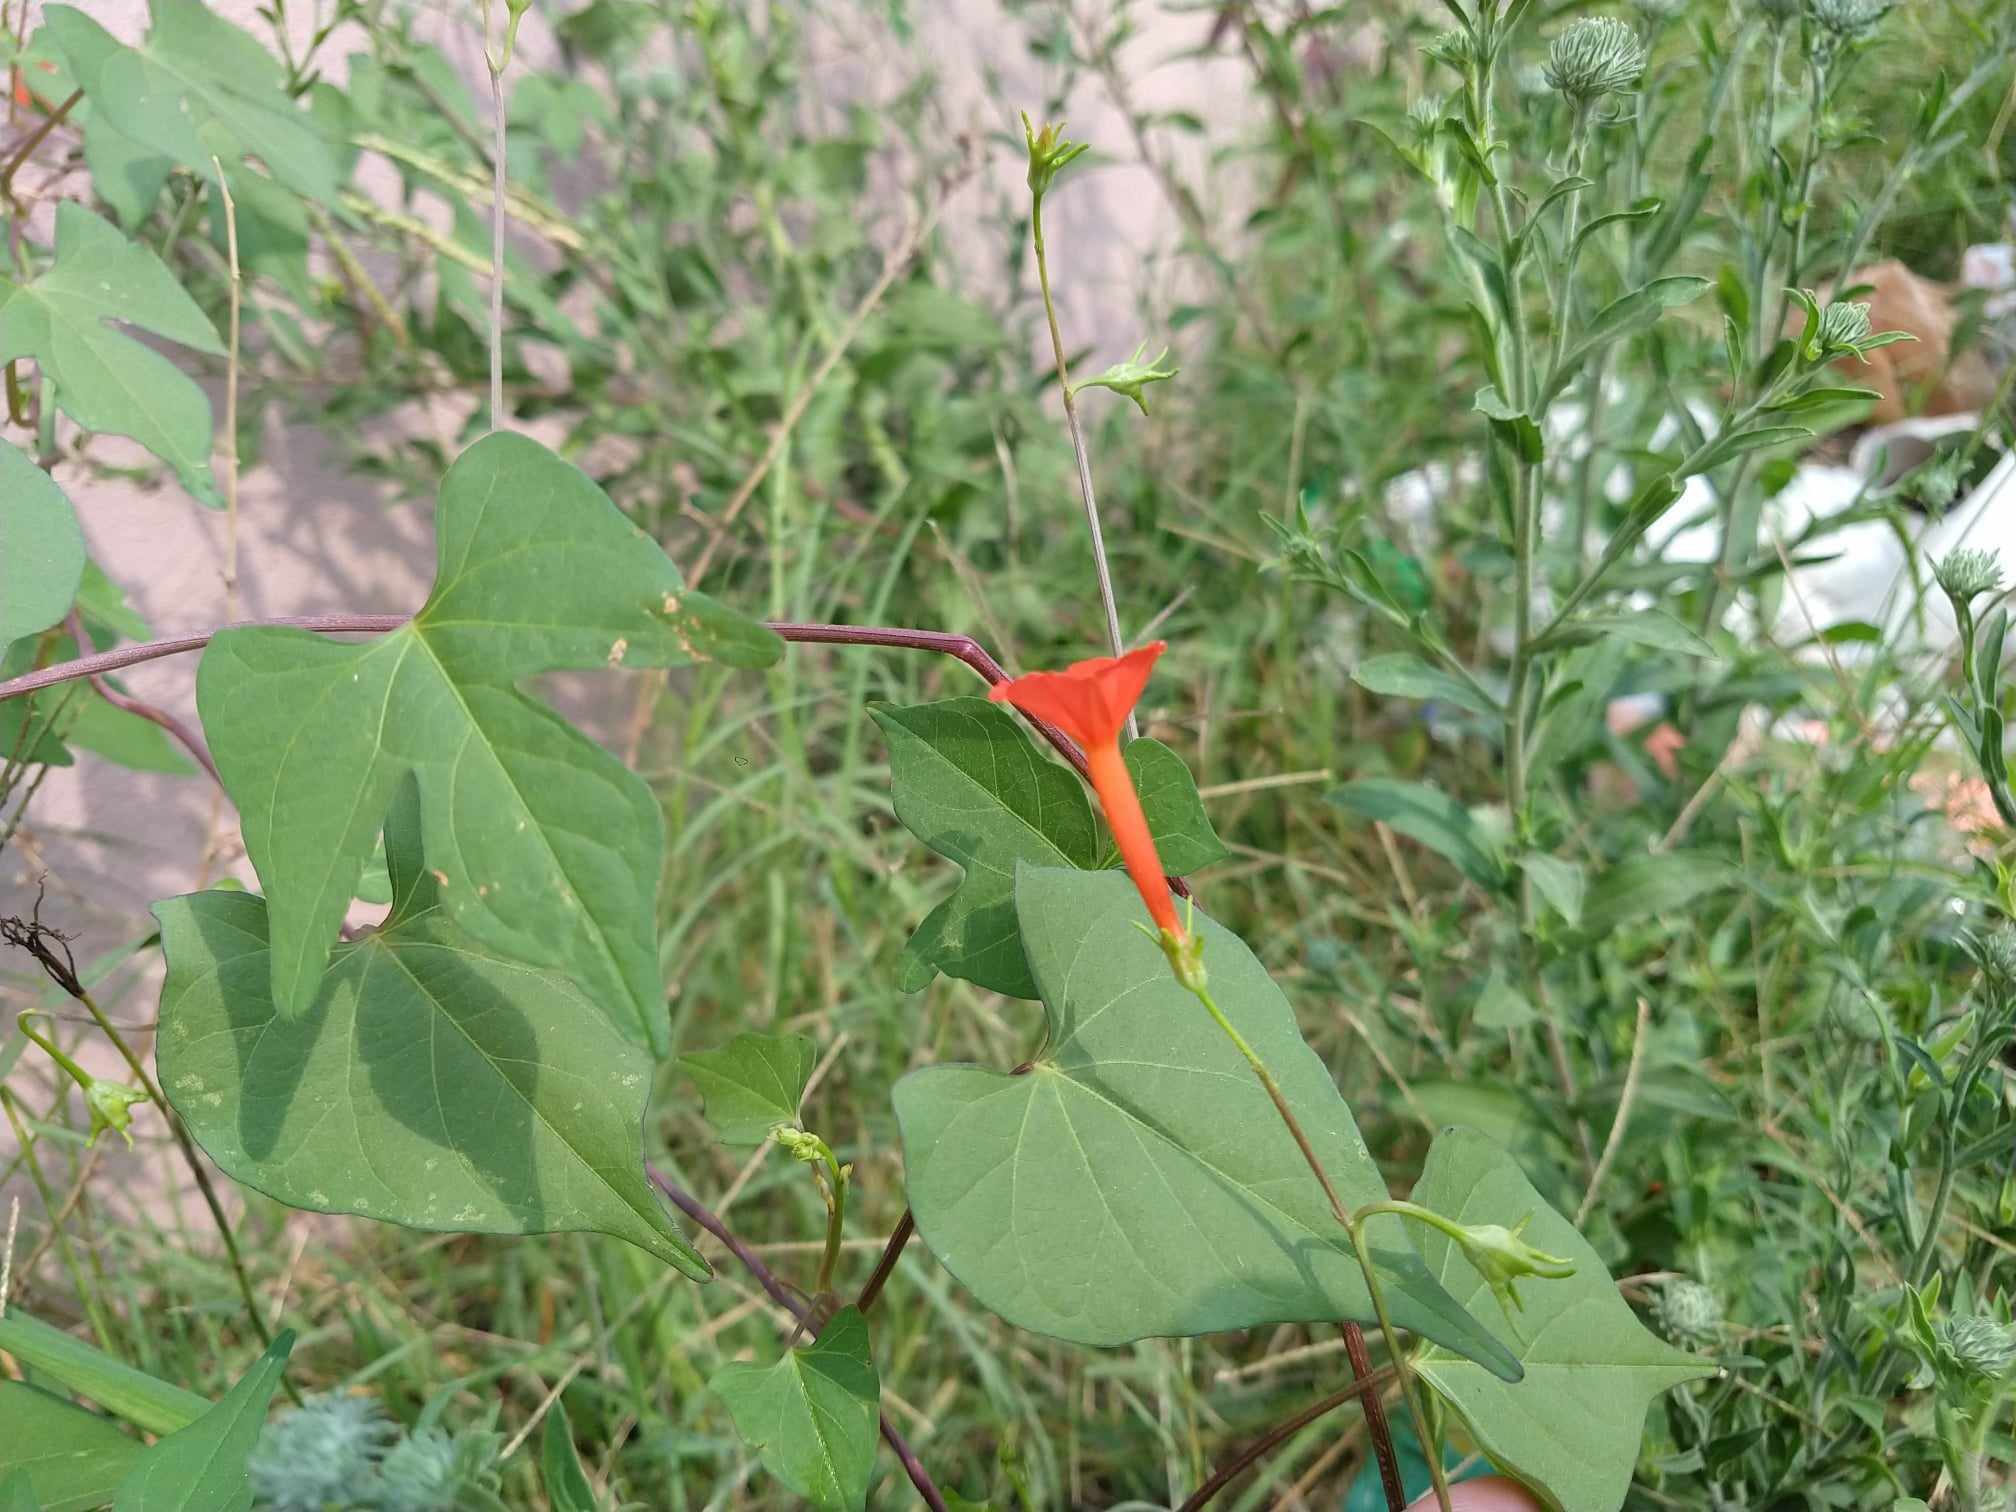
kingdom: Plantae
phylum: Tracheophyta
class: Magnoliopsida
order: Solanales
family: Convolvulaceae
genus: Ipomoea
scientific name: Ipomoea cristulata
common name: Trans-pecos morning-glory
